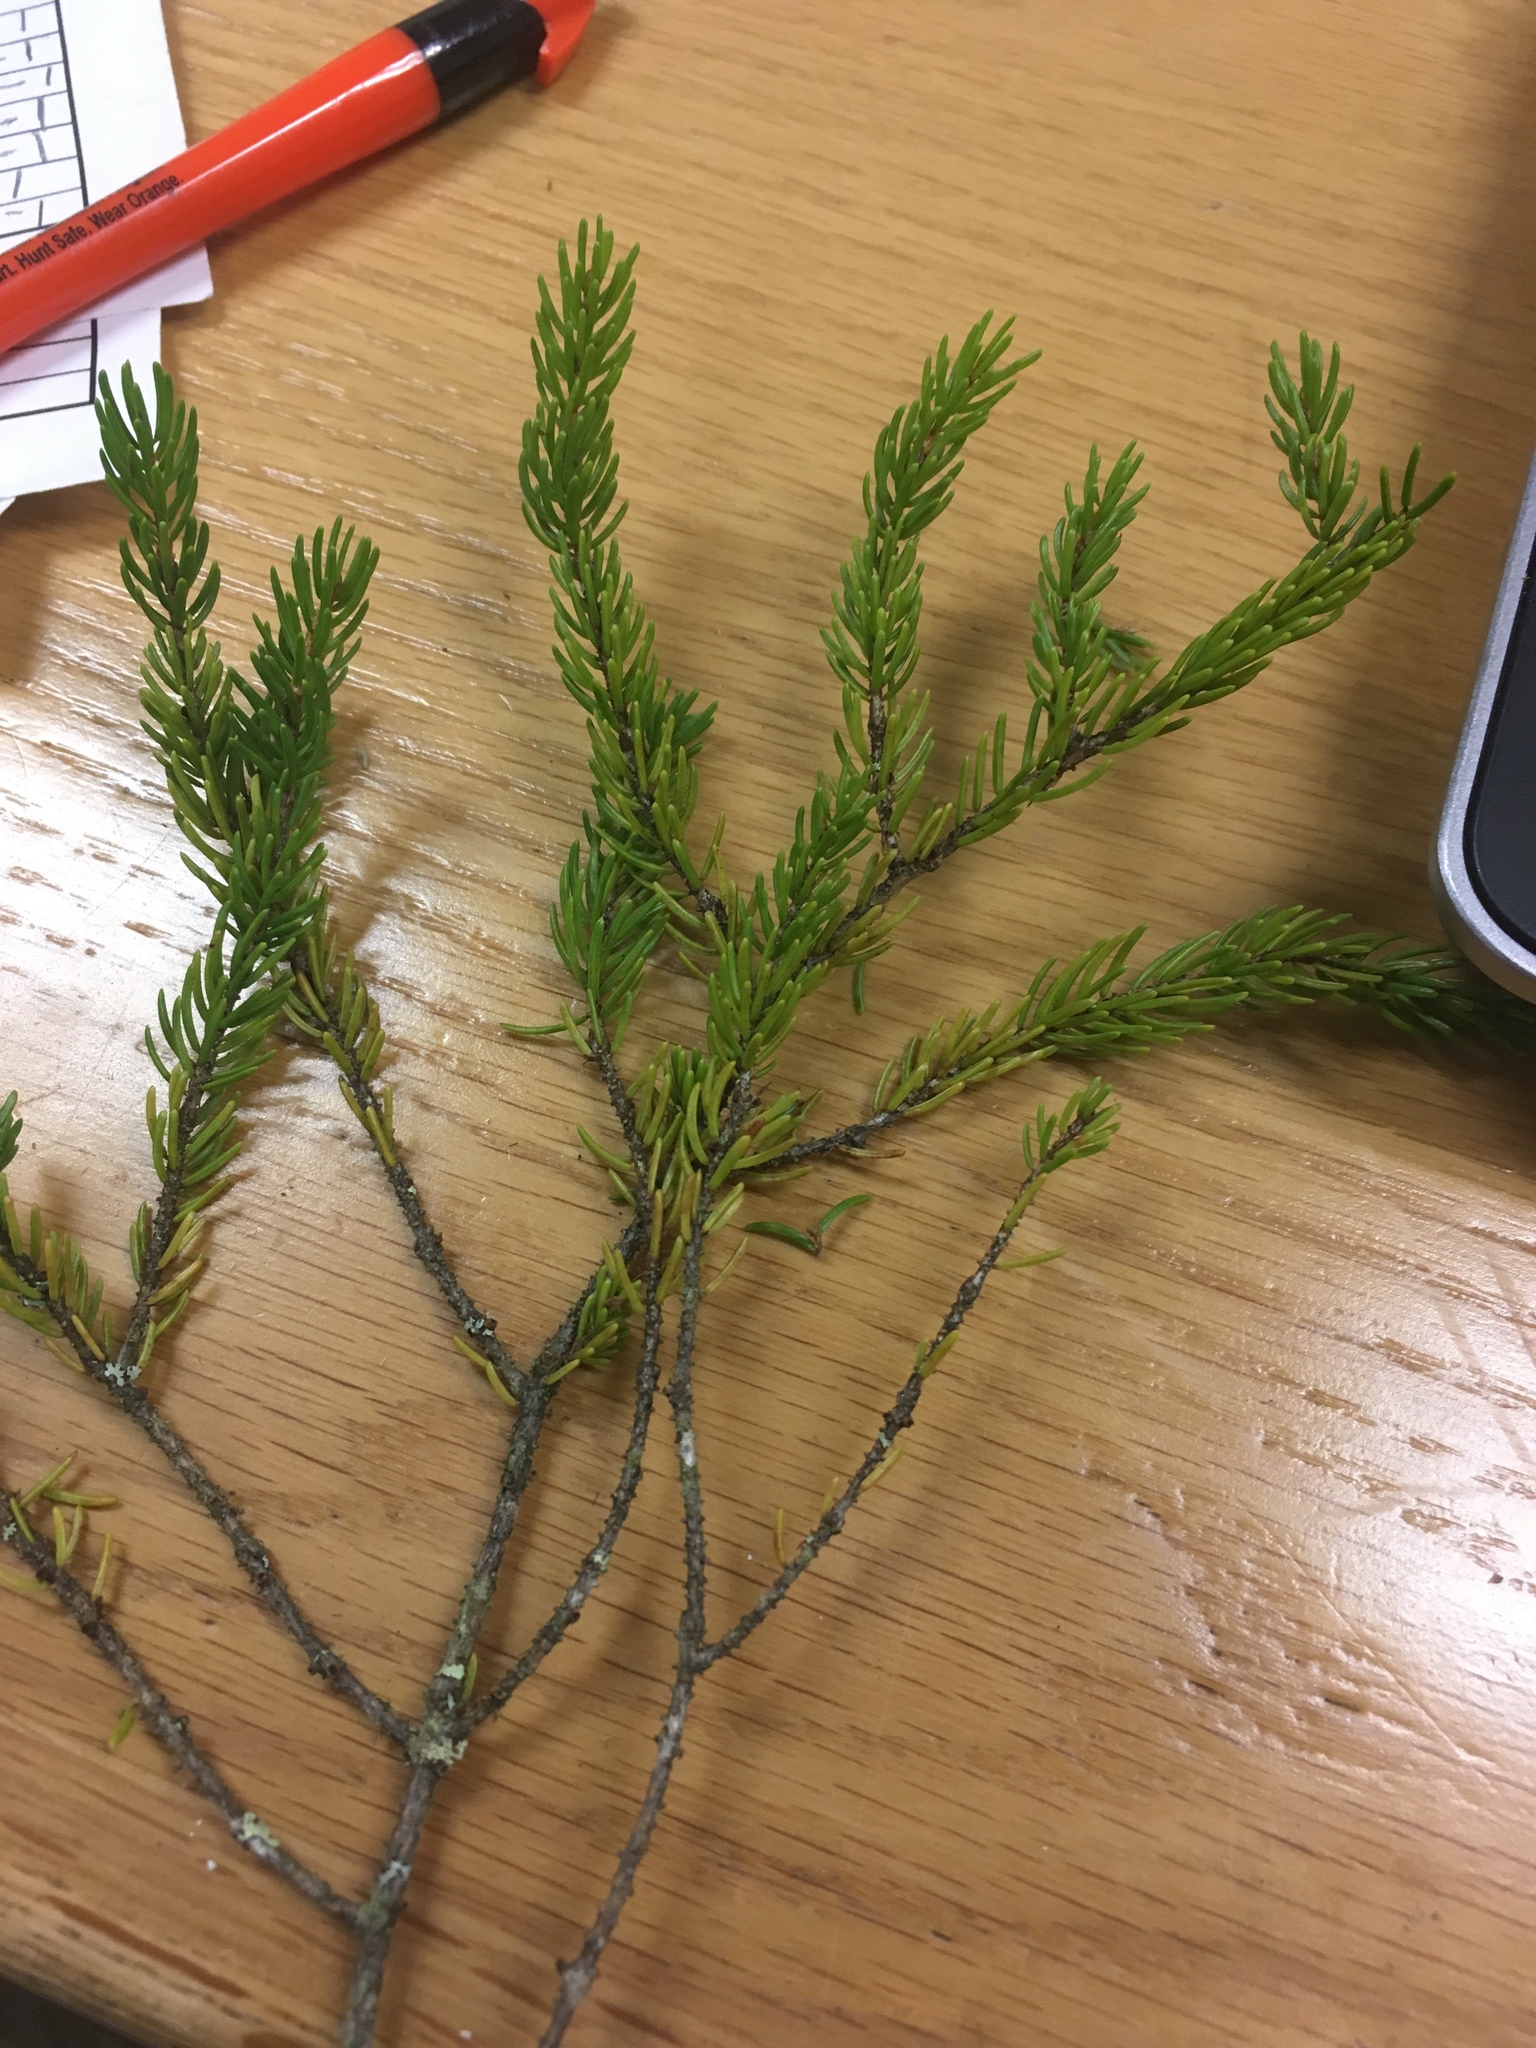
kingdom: Plantae
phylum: Tracheophyta
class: Pinopsida
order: Pinales
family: Pinaceae
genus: Picea
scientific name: Picea mariana
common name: Black spruce
